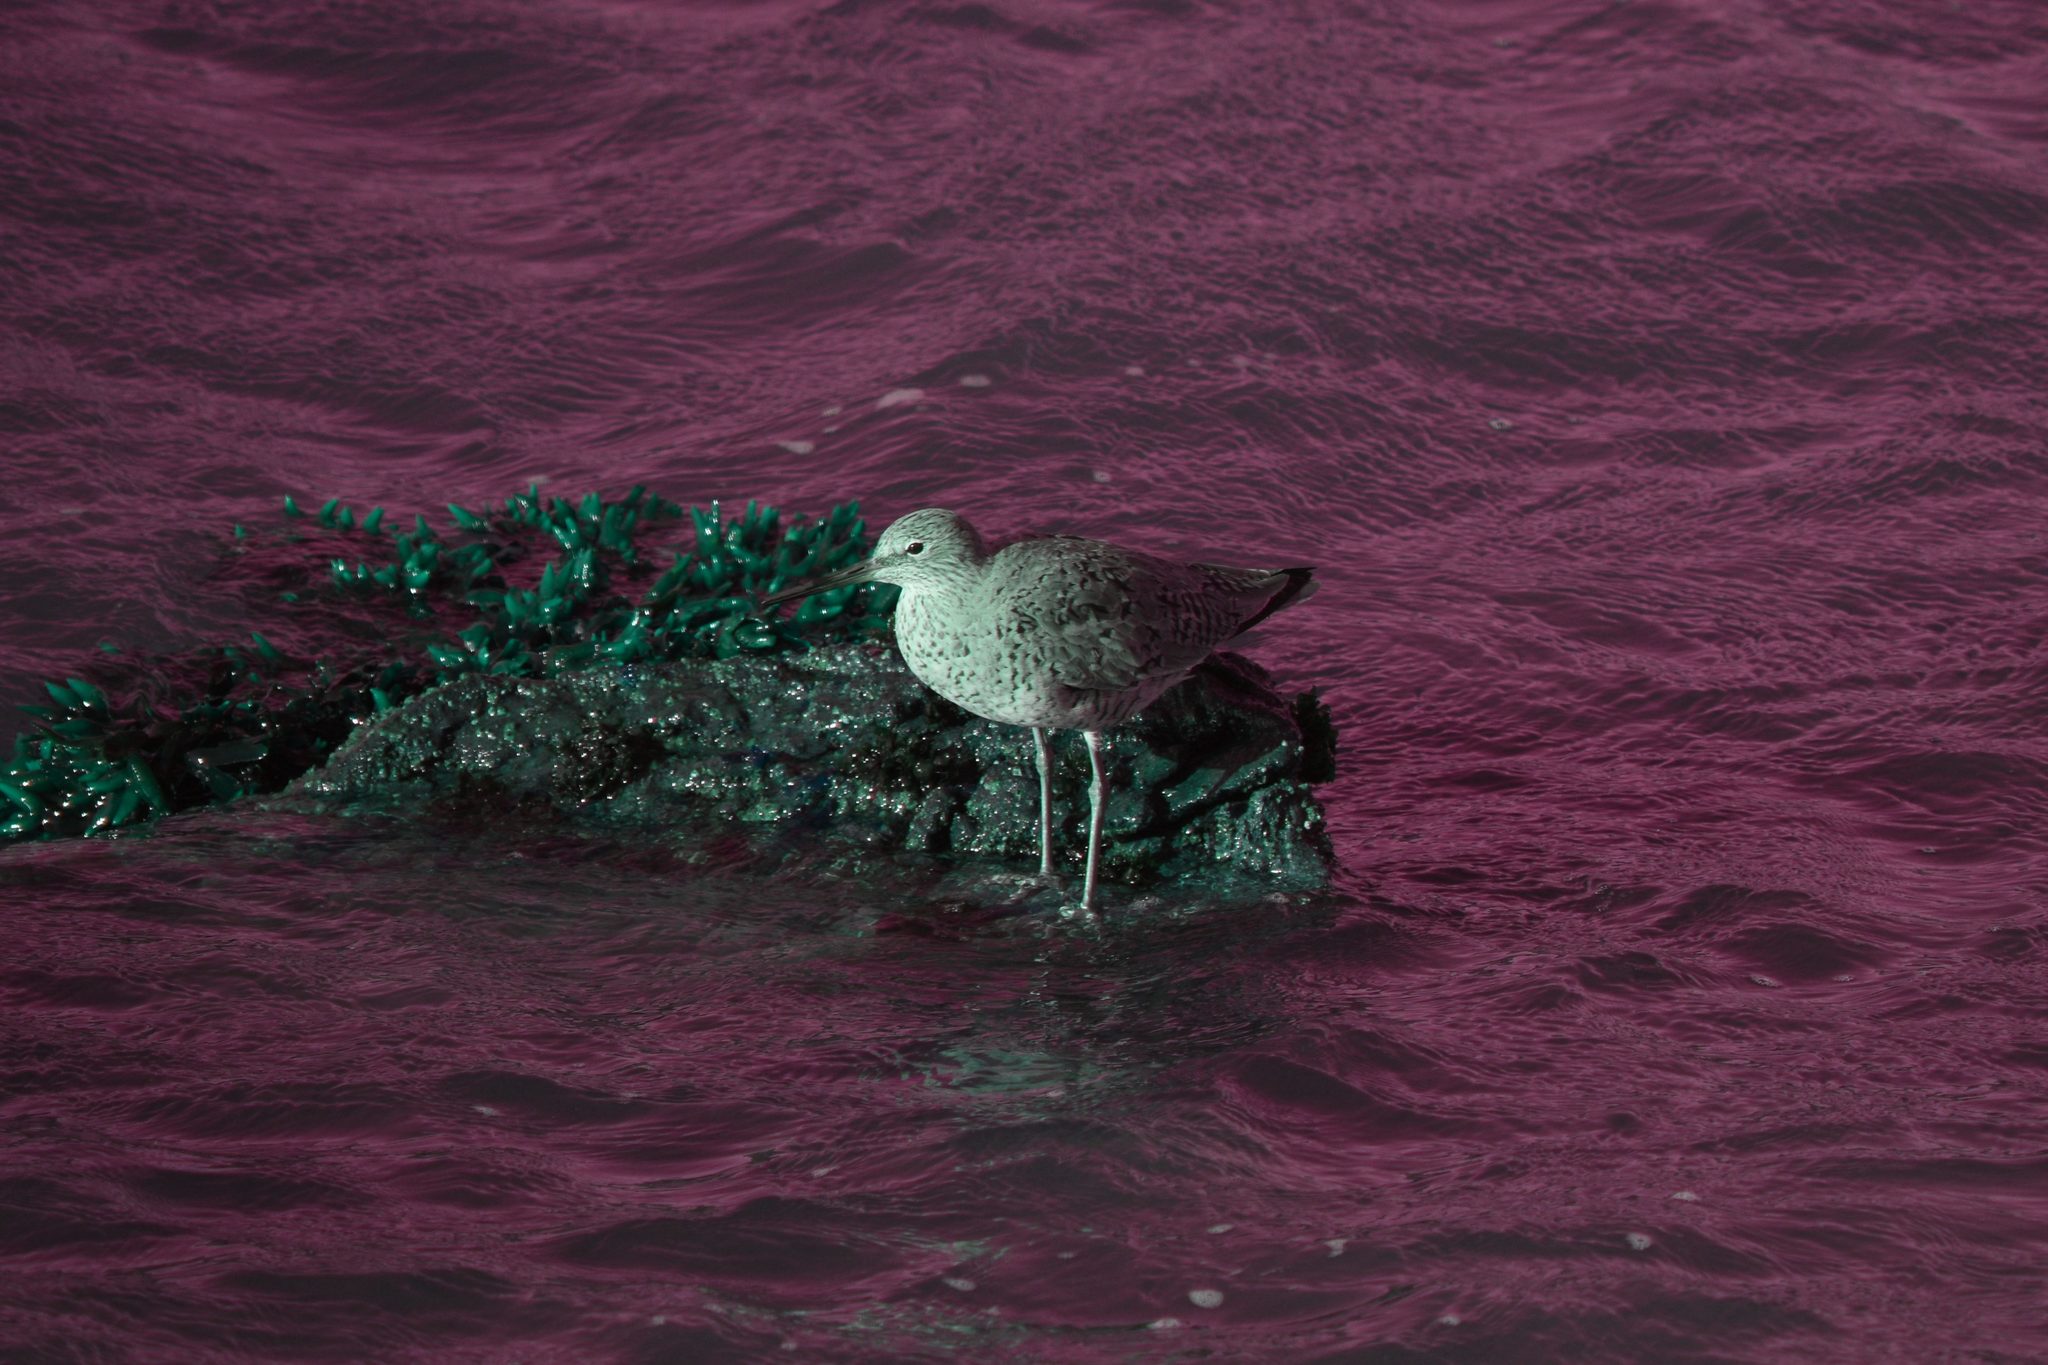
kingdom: Animalia
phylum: Chordata
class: Aves
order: Charadriiformes
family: Scolopacidae
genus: Tringa
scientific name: Tringa semipalmata
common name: Willet
